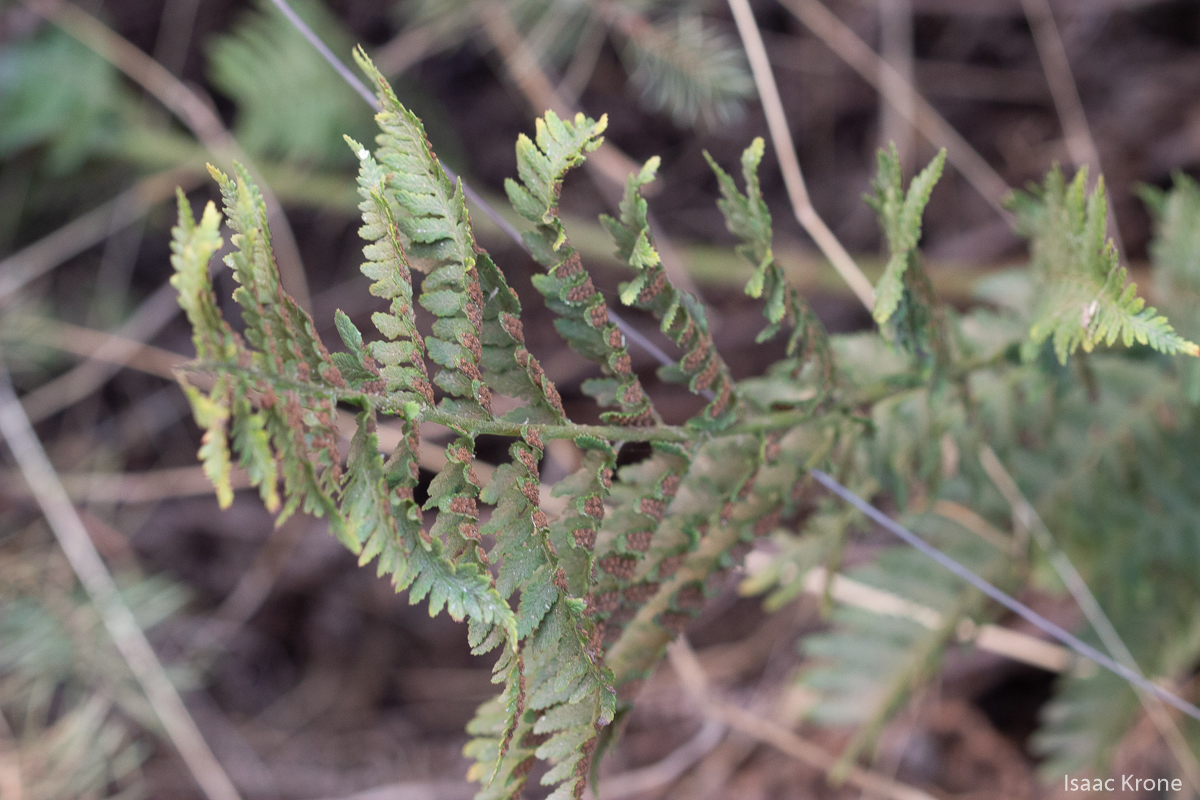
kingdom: Plantae
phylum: Tracheophyta
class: Polypodiopsida
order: Polypodiales
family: Dryopteridaceae
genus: Dryopteris
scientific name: Dryopteris arguta
